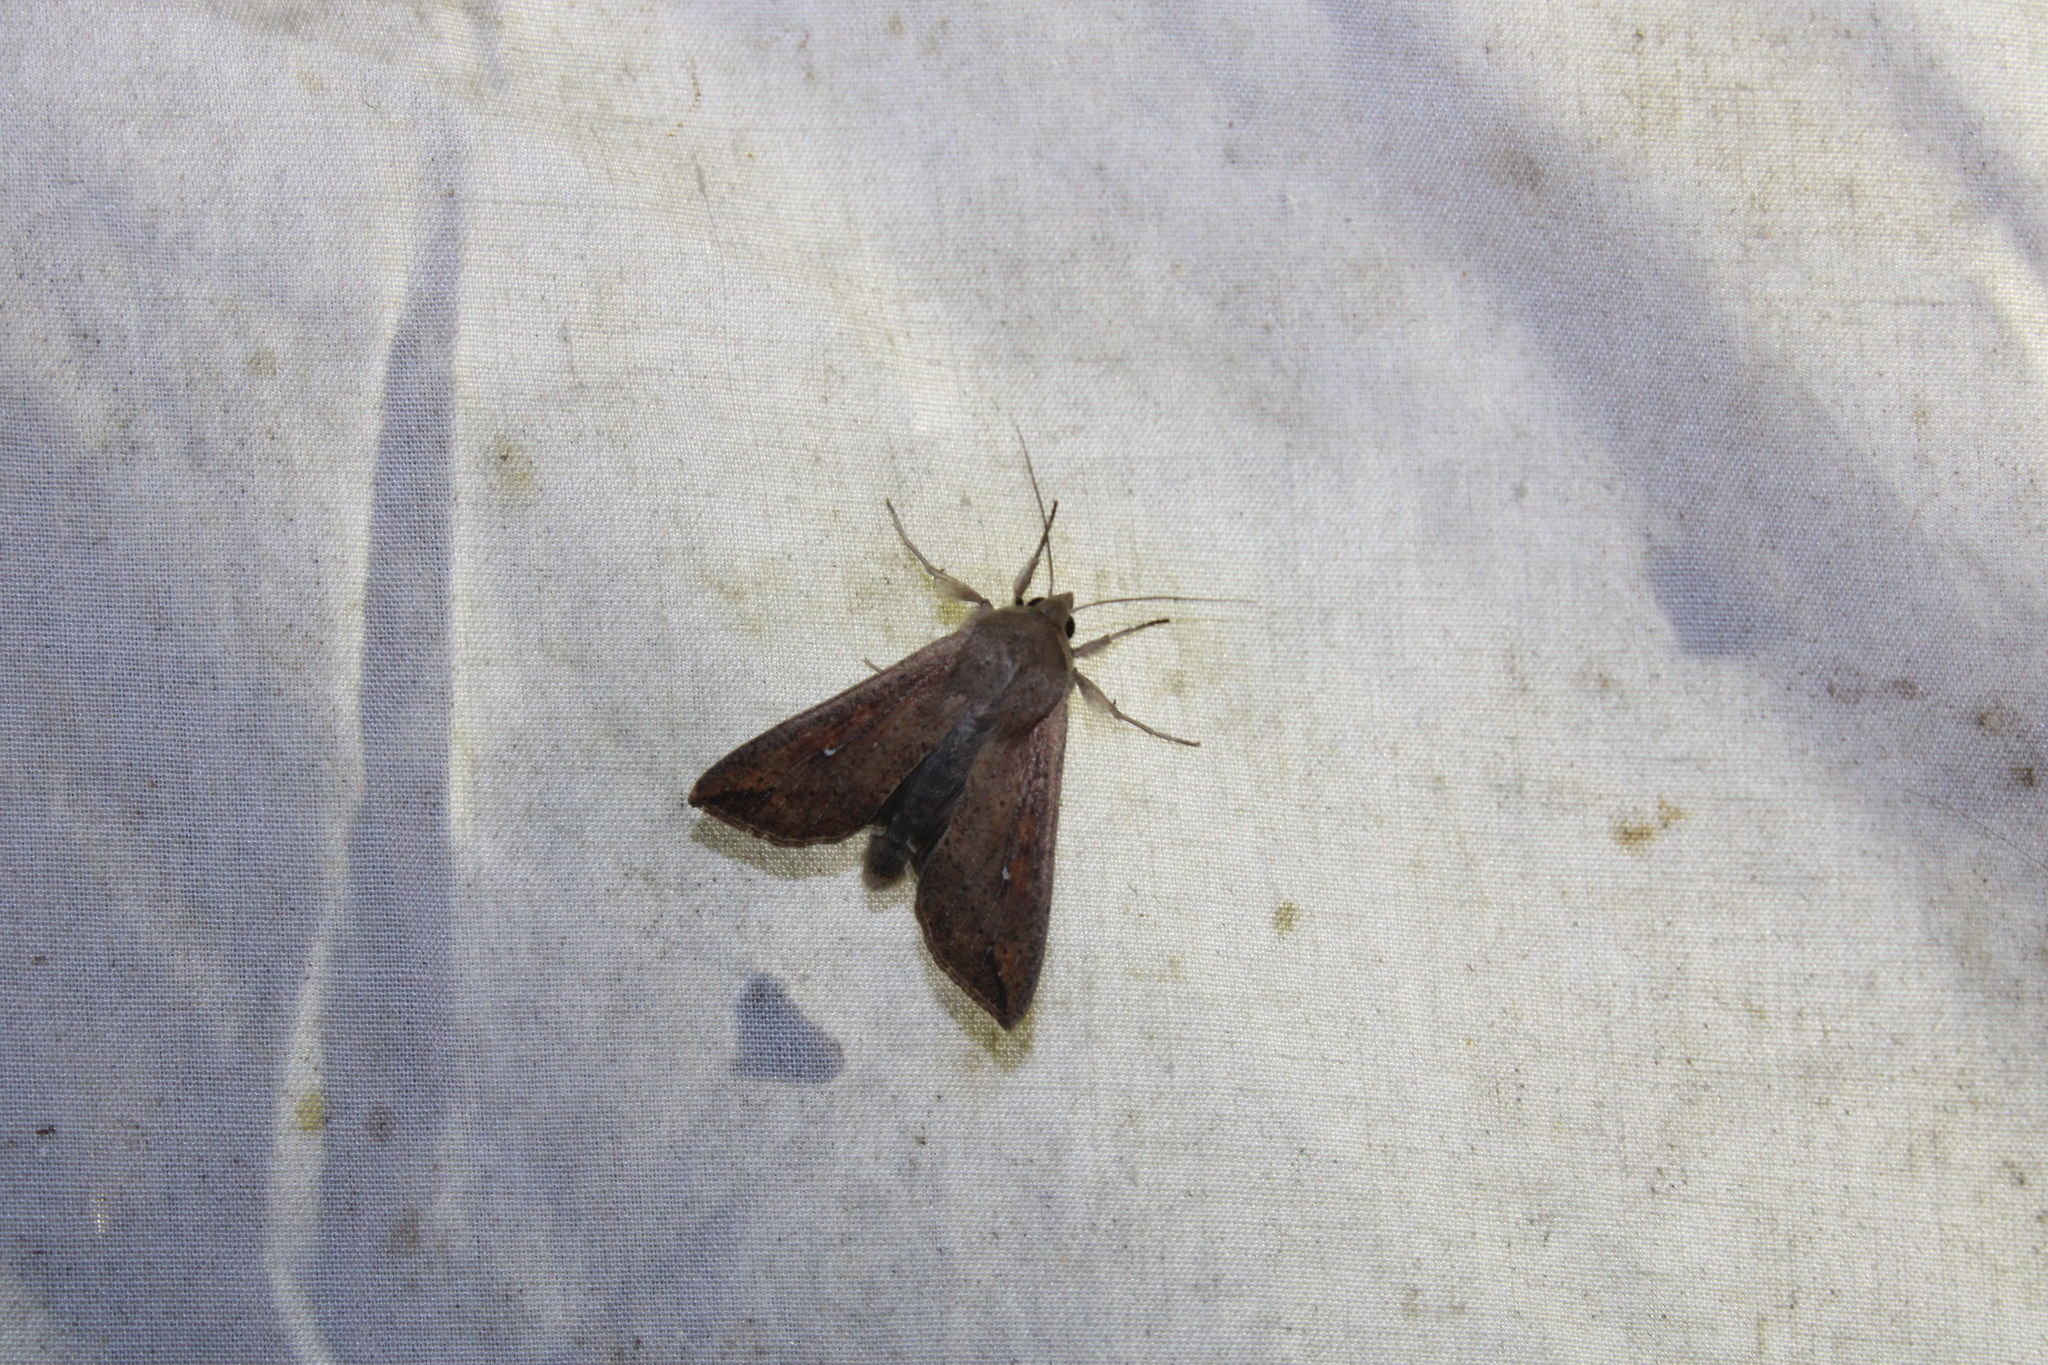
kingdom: Animalia
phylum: Arthropoda
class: Insecta
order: Lepidoptera
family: Noctuidae
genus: Mythimna
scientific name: Mythimna unipuncta
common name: White-speck
